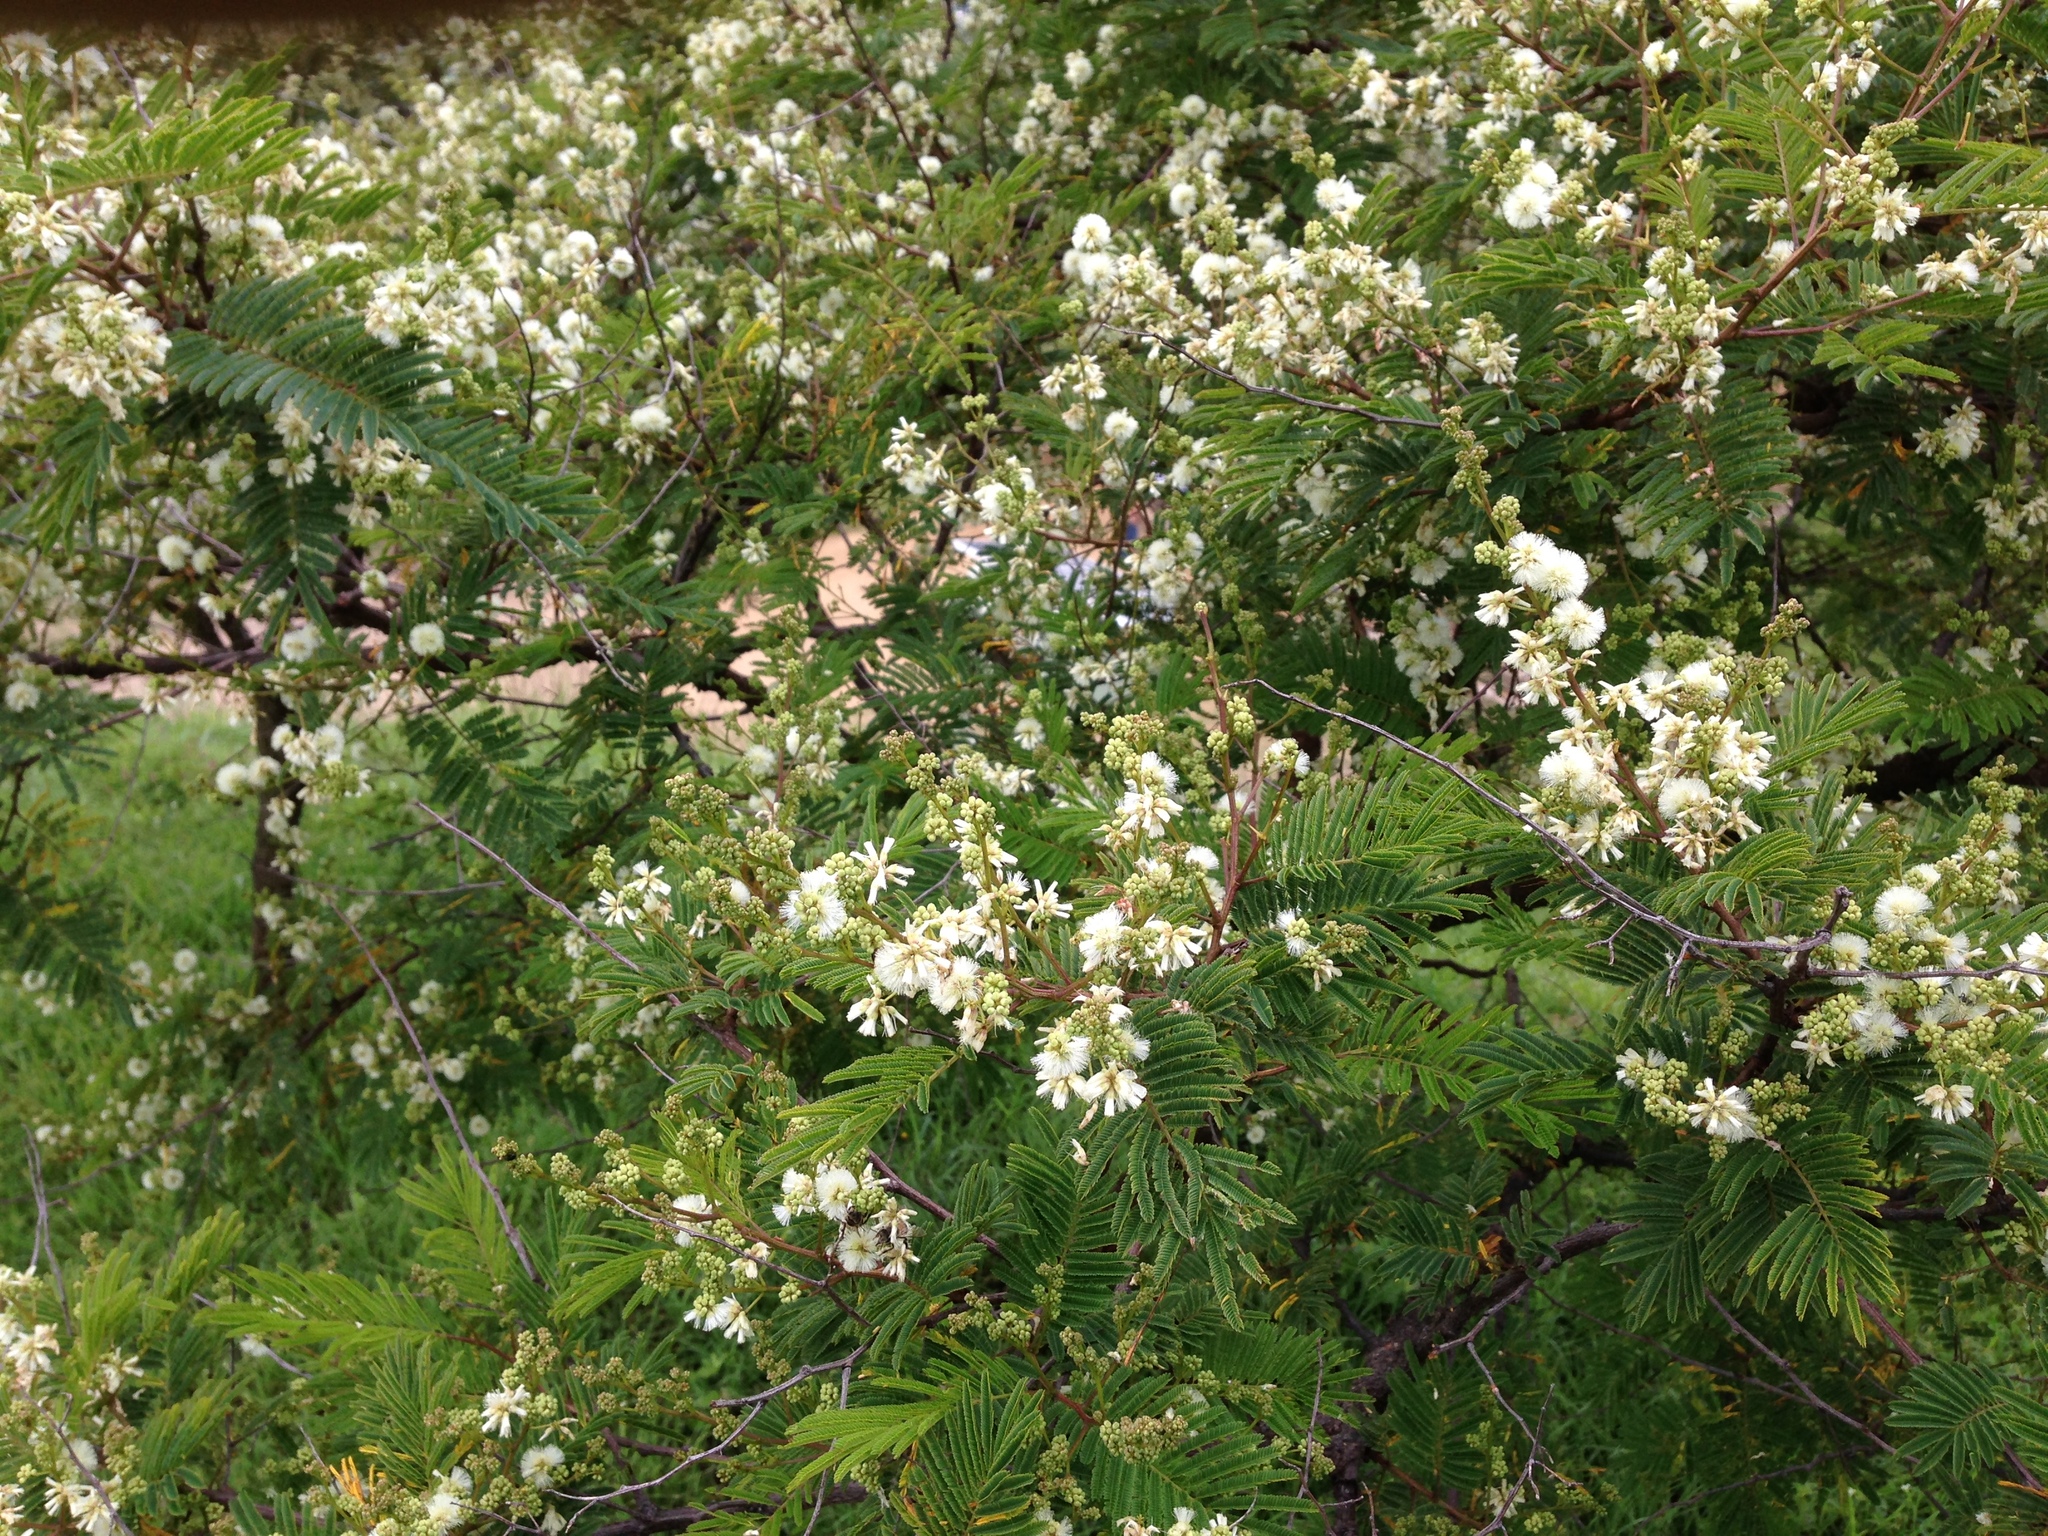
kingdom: Plantae
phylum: Tracheophyta
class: Magnoliopsida
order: Fabales
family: Fabaceae
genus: Acaciella
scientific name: Acaciella angustissima
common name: Prairie acacia
